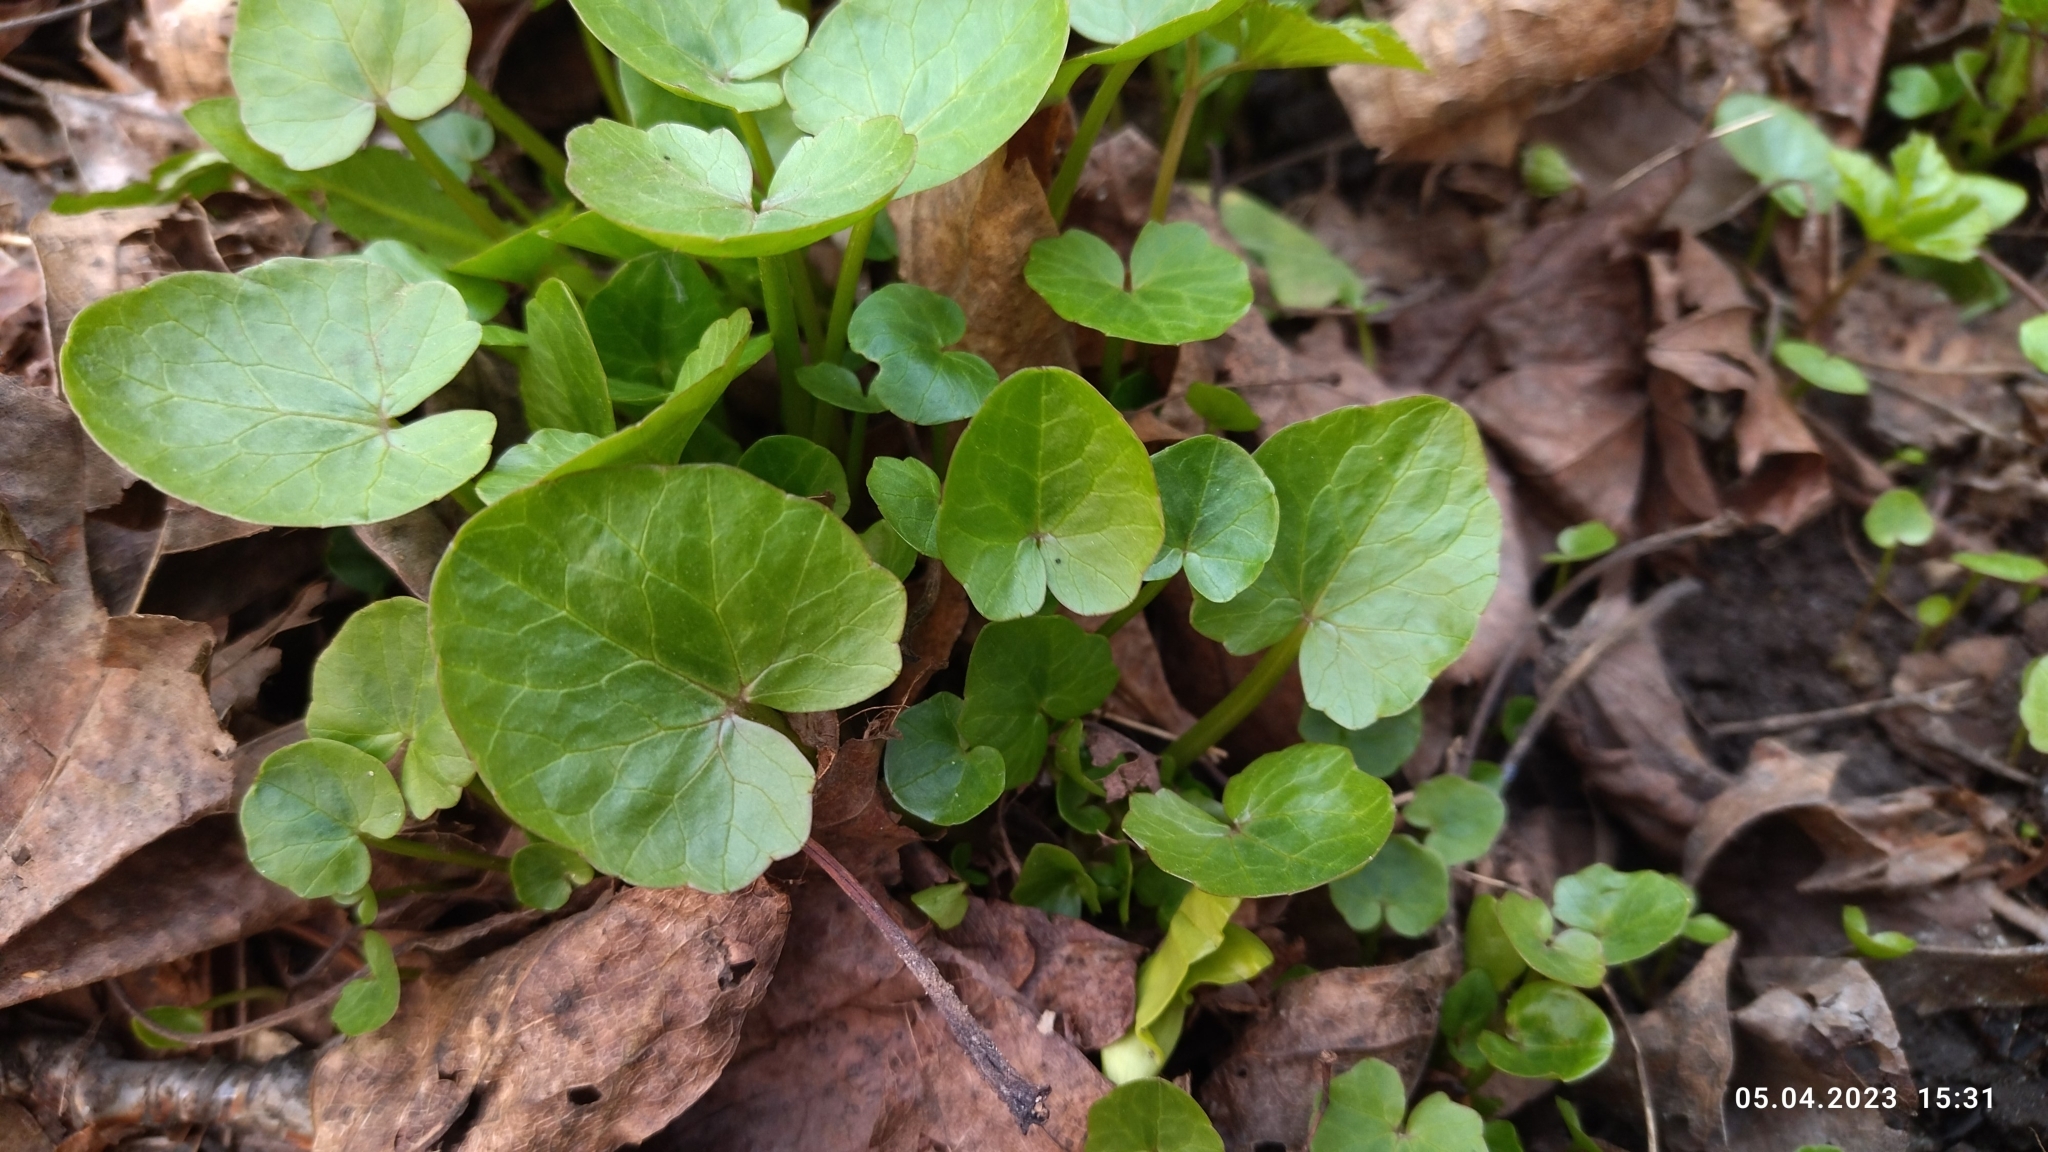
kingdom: Plantae
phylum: Tracheophyta
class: Magnoliopsida
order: Ranunculales
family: Ranunculaceae
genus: Ficaria
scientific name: Ficaria verna
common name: Lesser celandine
